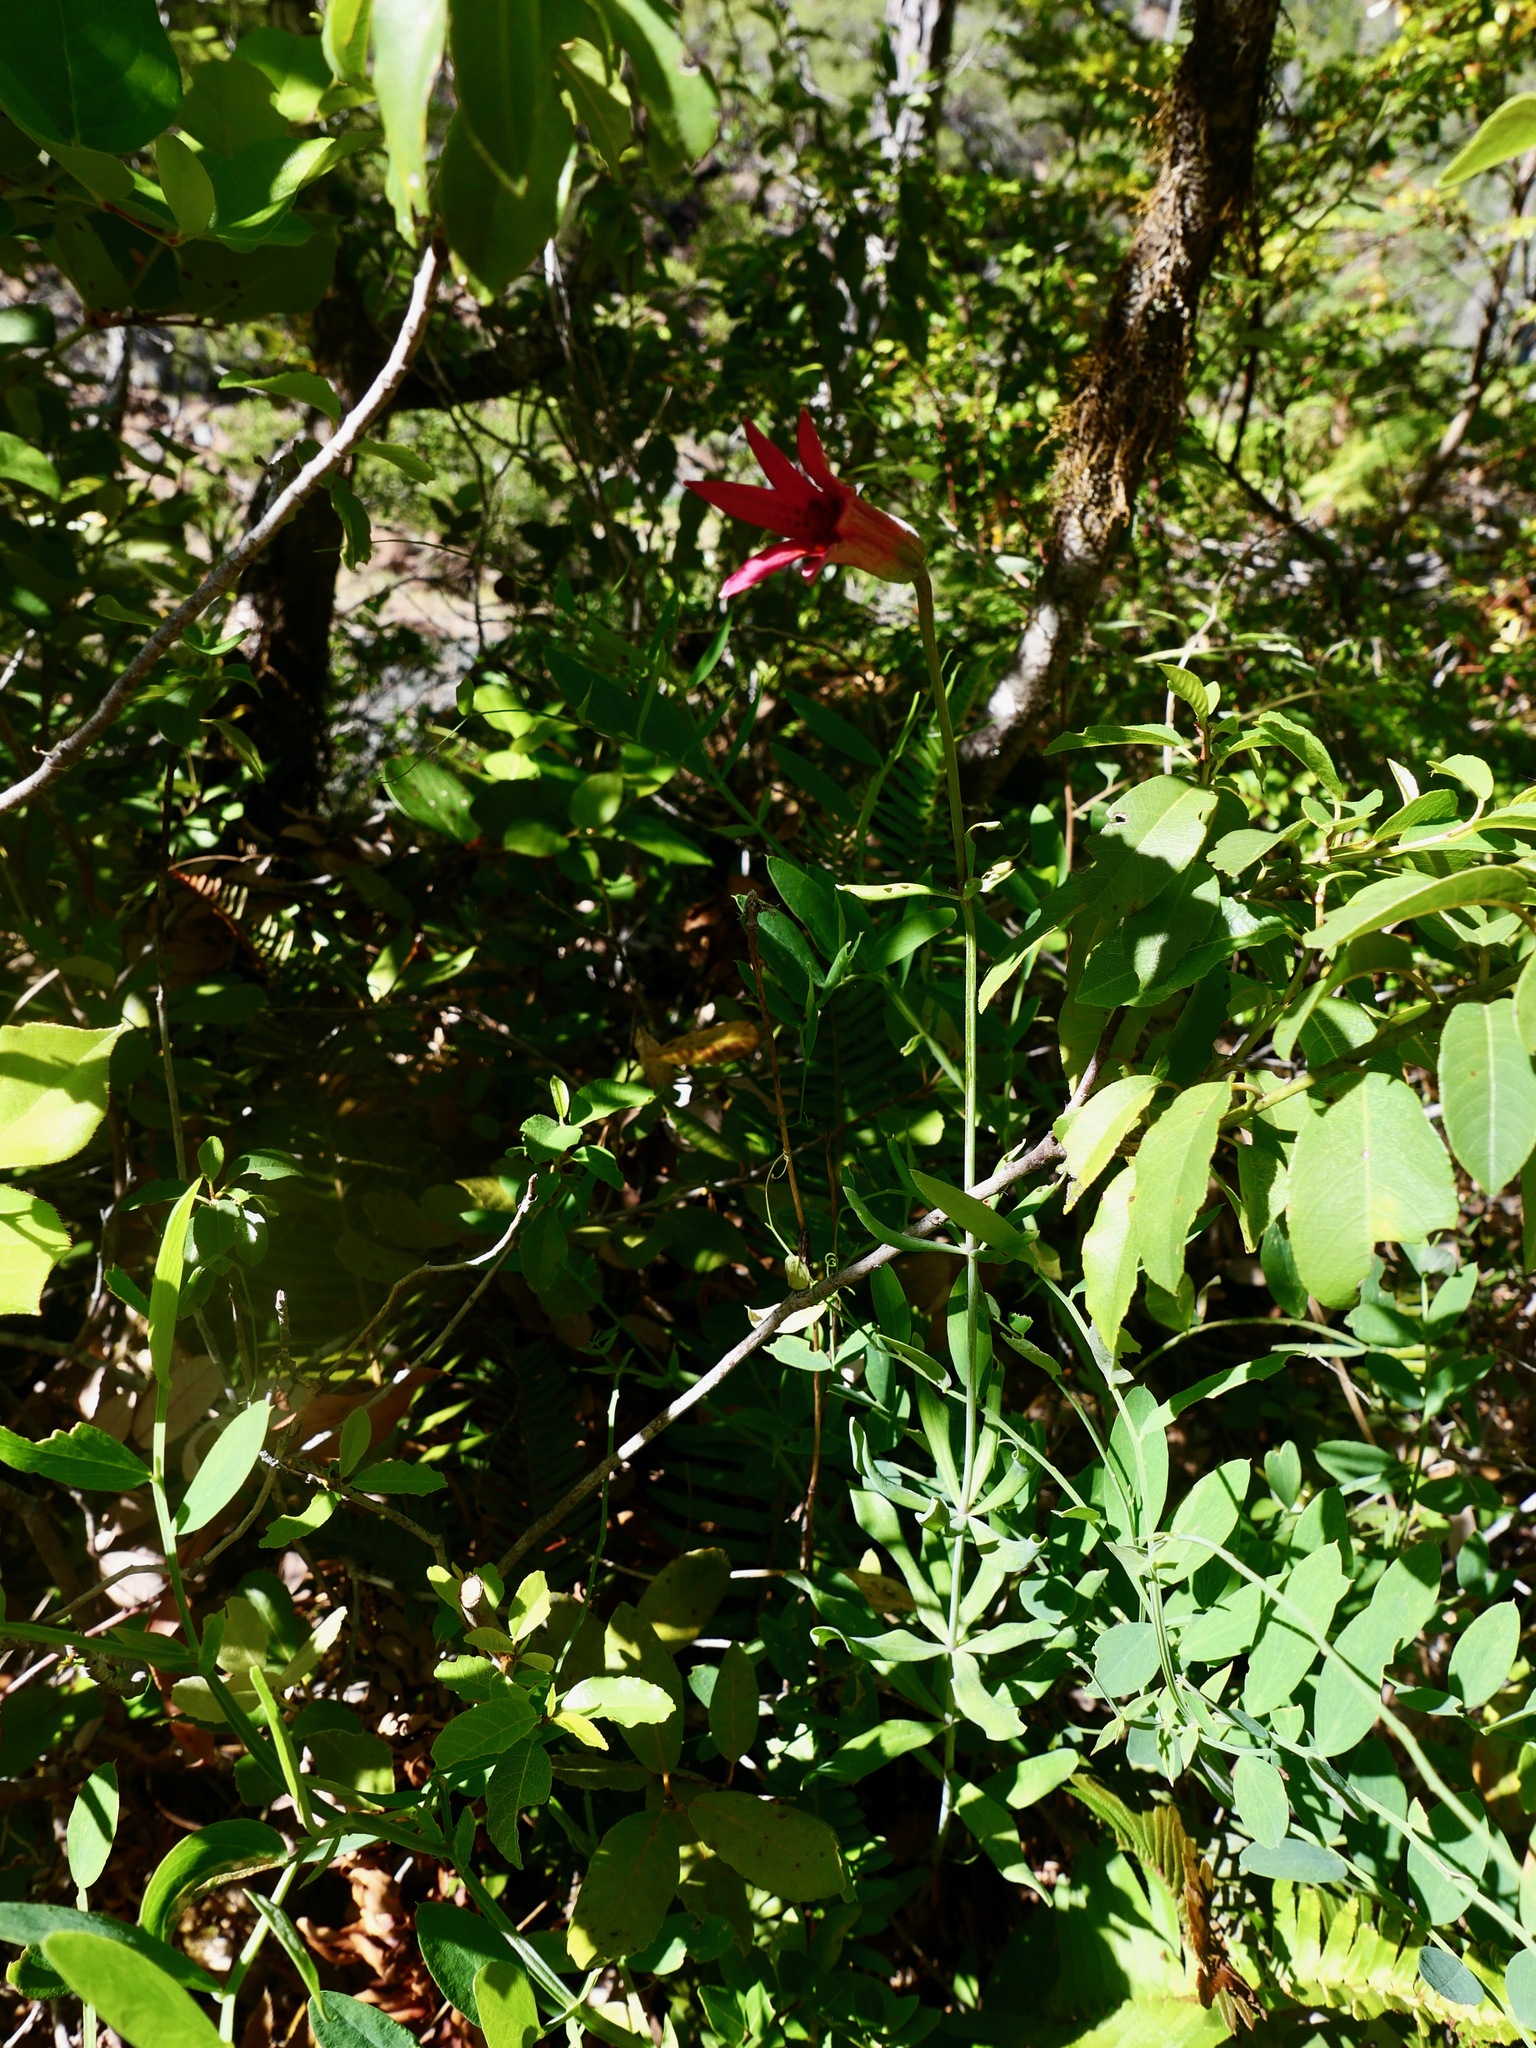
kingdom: Plantae
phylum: Tracheophyta
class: Liliopsida
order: Liliales
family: Liliaceae
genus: Lilium
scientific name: Lilium bolanderi
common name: Bolander's lily
